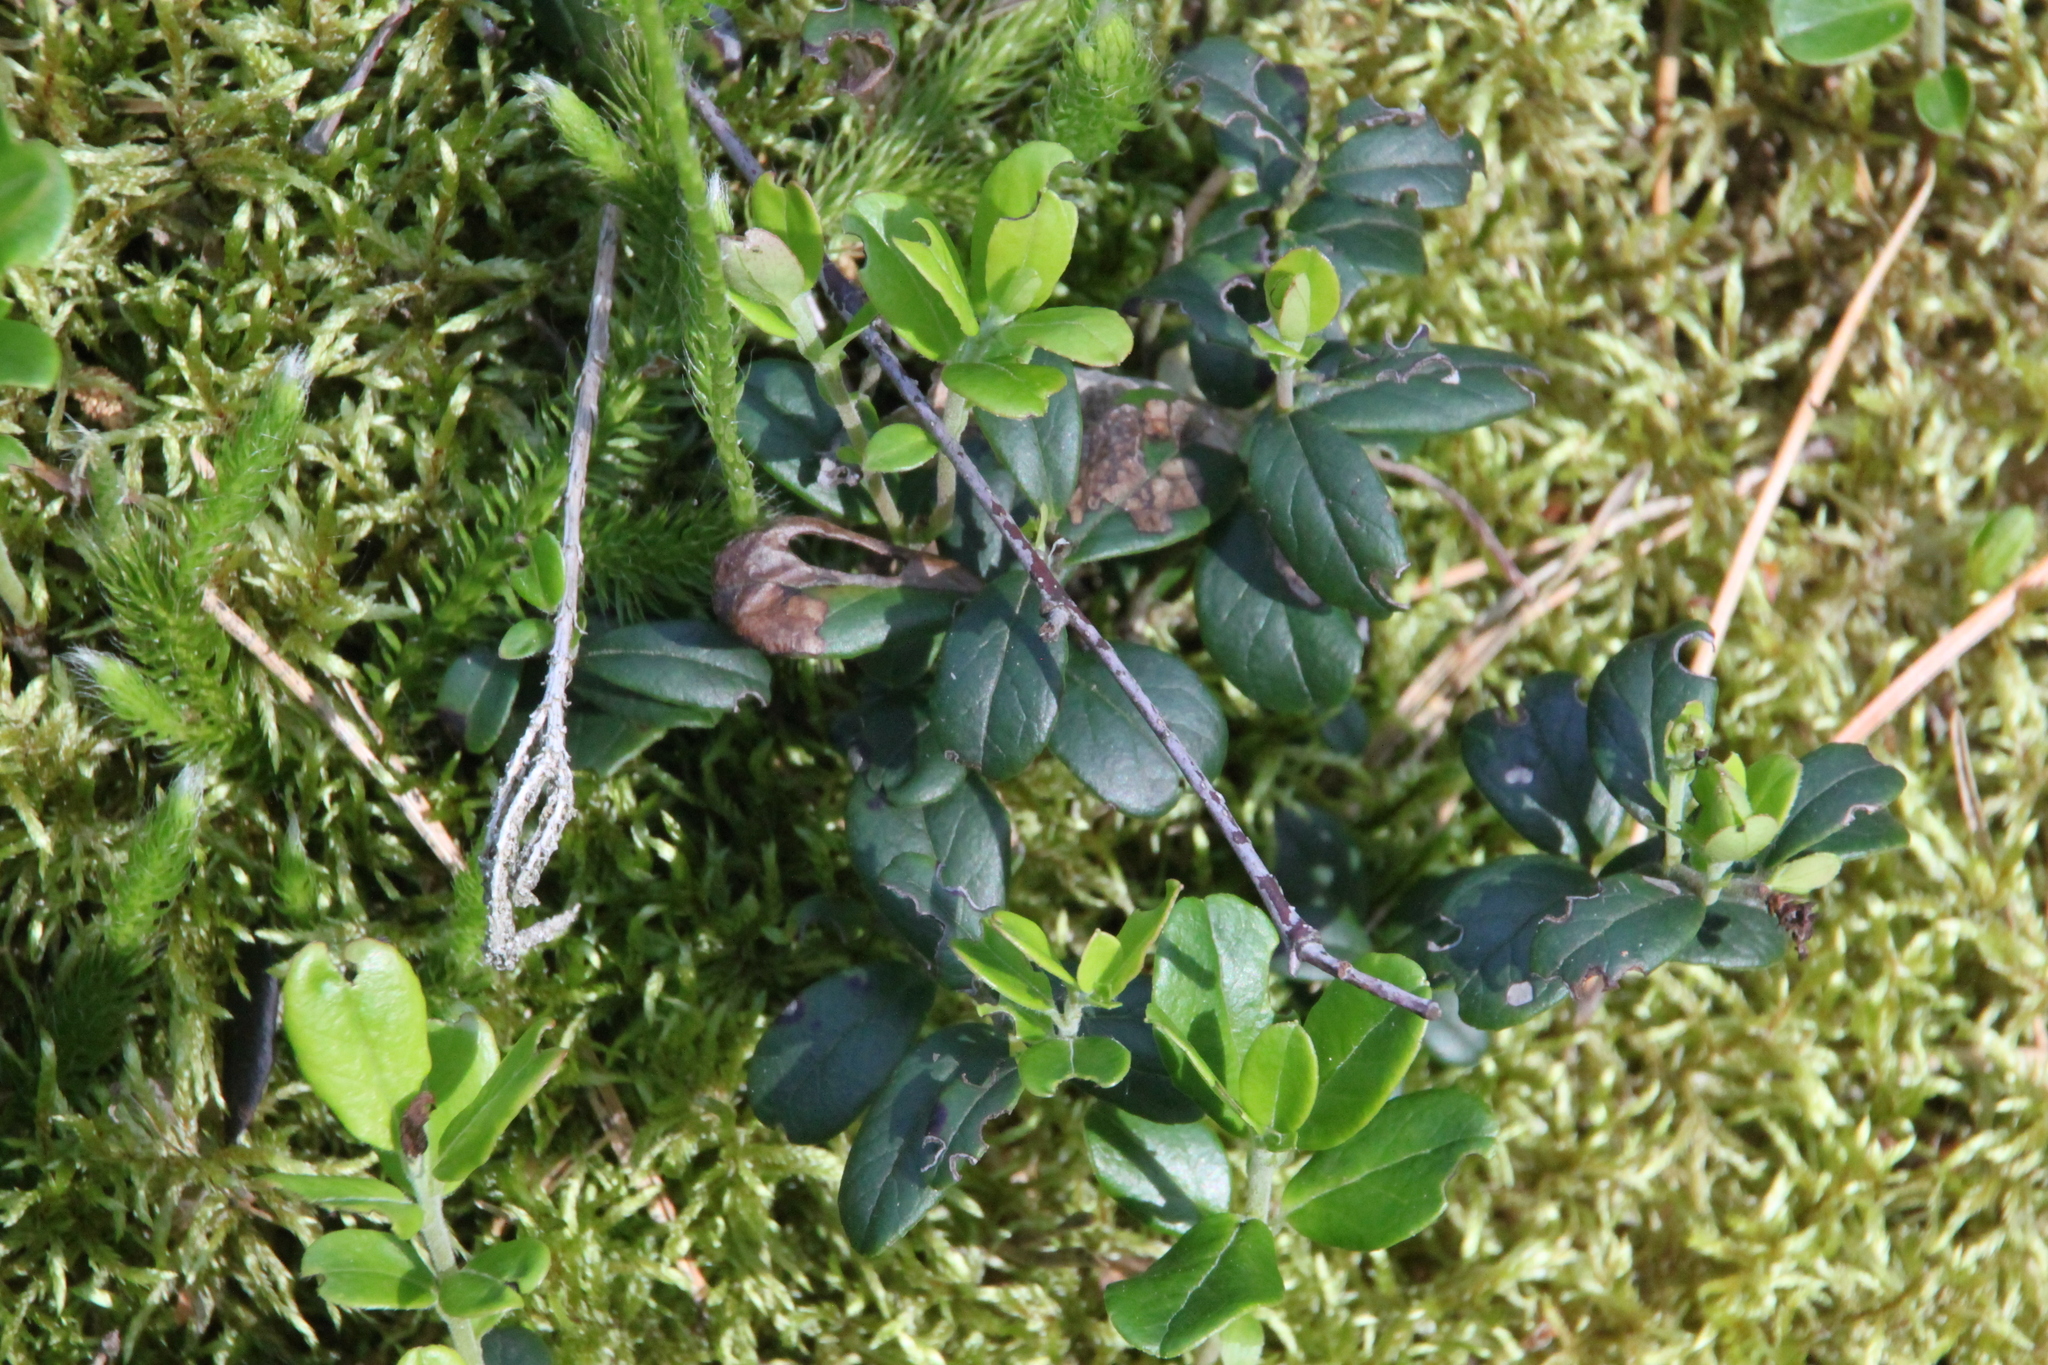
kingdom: Plantae
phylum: Tracheophyta
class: Magnoliopsida
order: Ericales
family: Ericaceae
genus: Vaccinium
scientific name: Vaccinium vitis-idaea
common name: Cowberry
